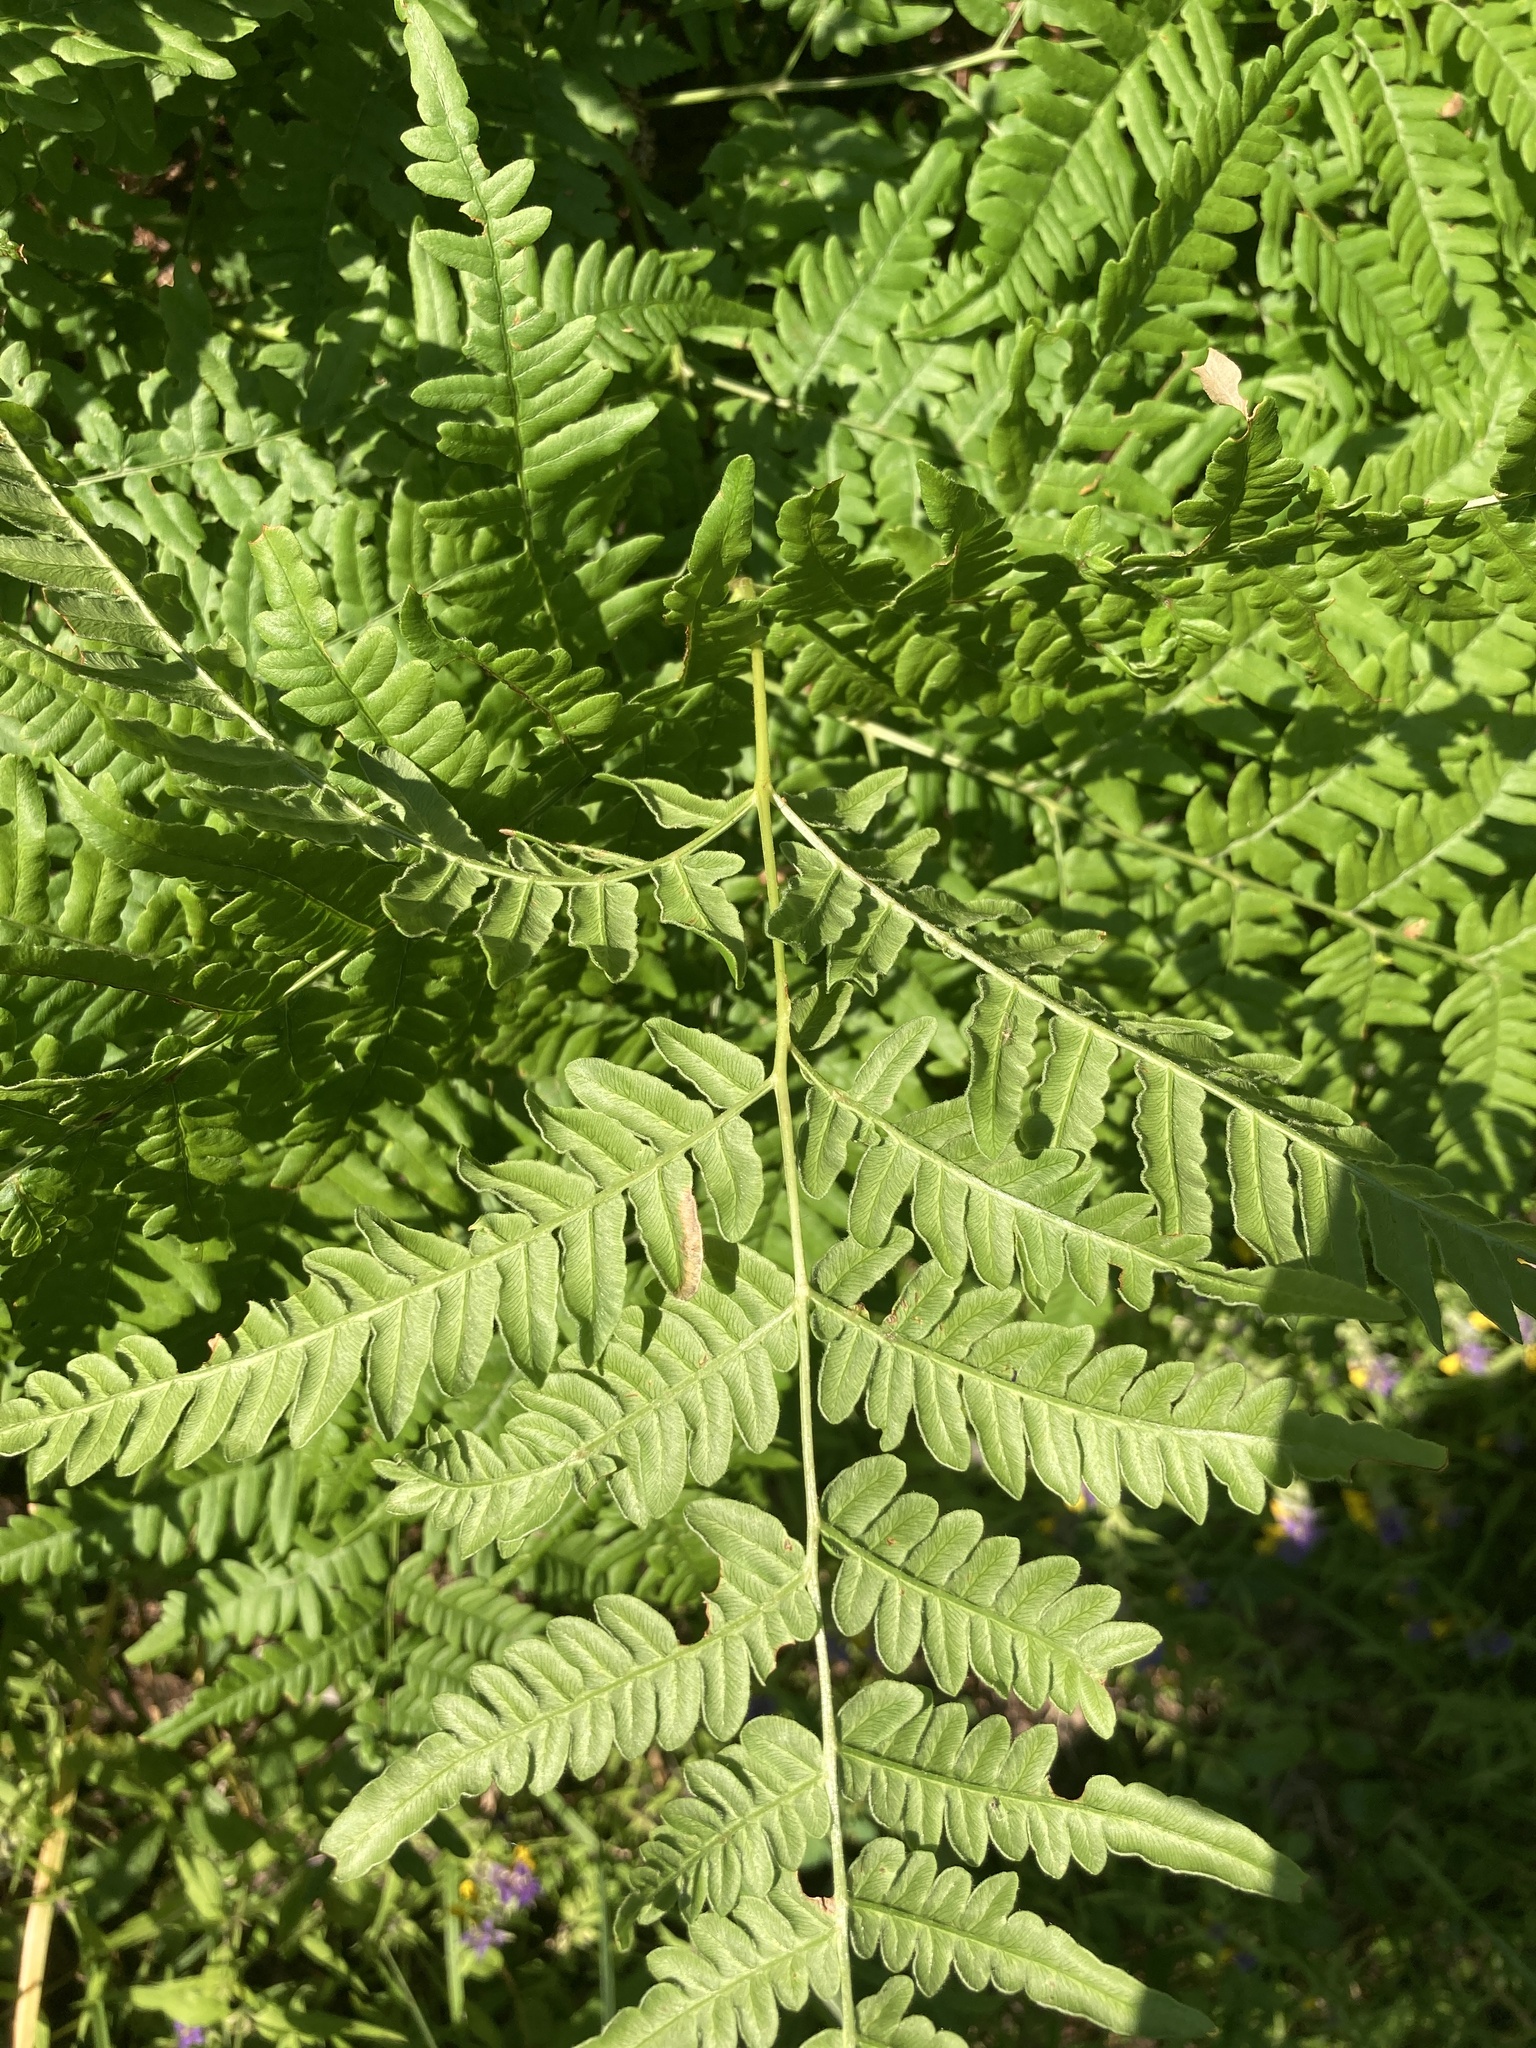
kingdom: Plantae
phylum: Tracheophyta
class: Polypodiopsida
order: Polypodiales
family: Dennstaedtiaceae
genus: Pteridium
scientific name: Pteridium aquilinum
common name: Bracken
